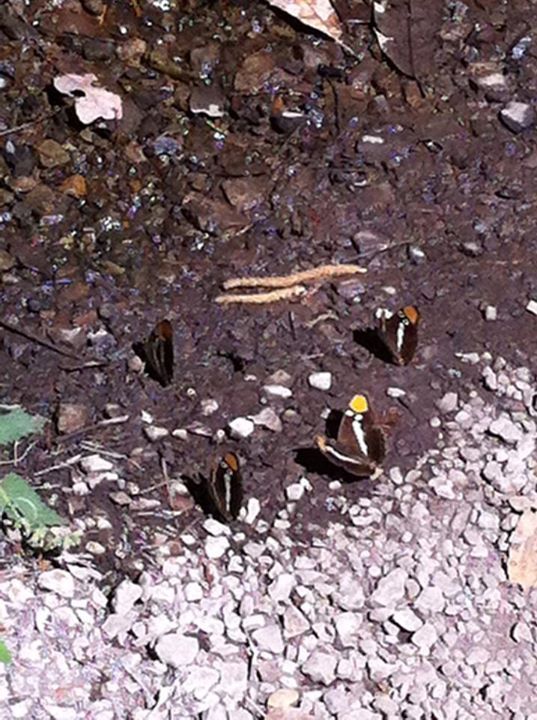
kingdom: Animalia
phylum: Arthropoda
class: Insecta
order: Lepidoptera
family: Nymphalidae
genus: Limenitis
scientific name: Limenitis bredowii
